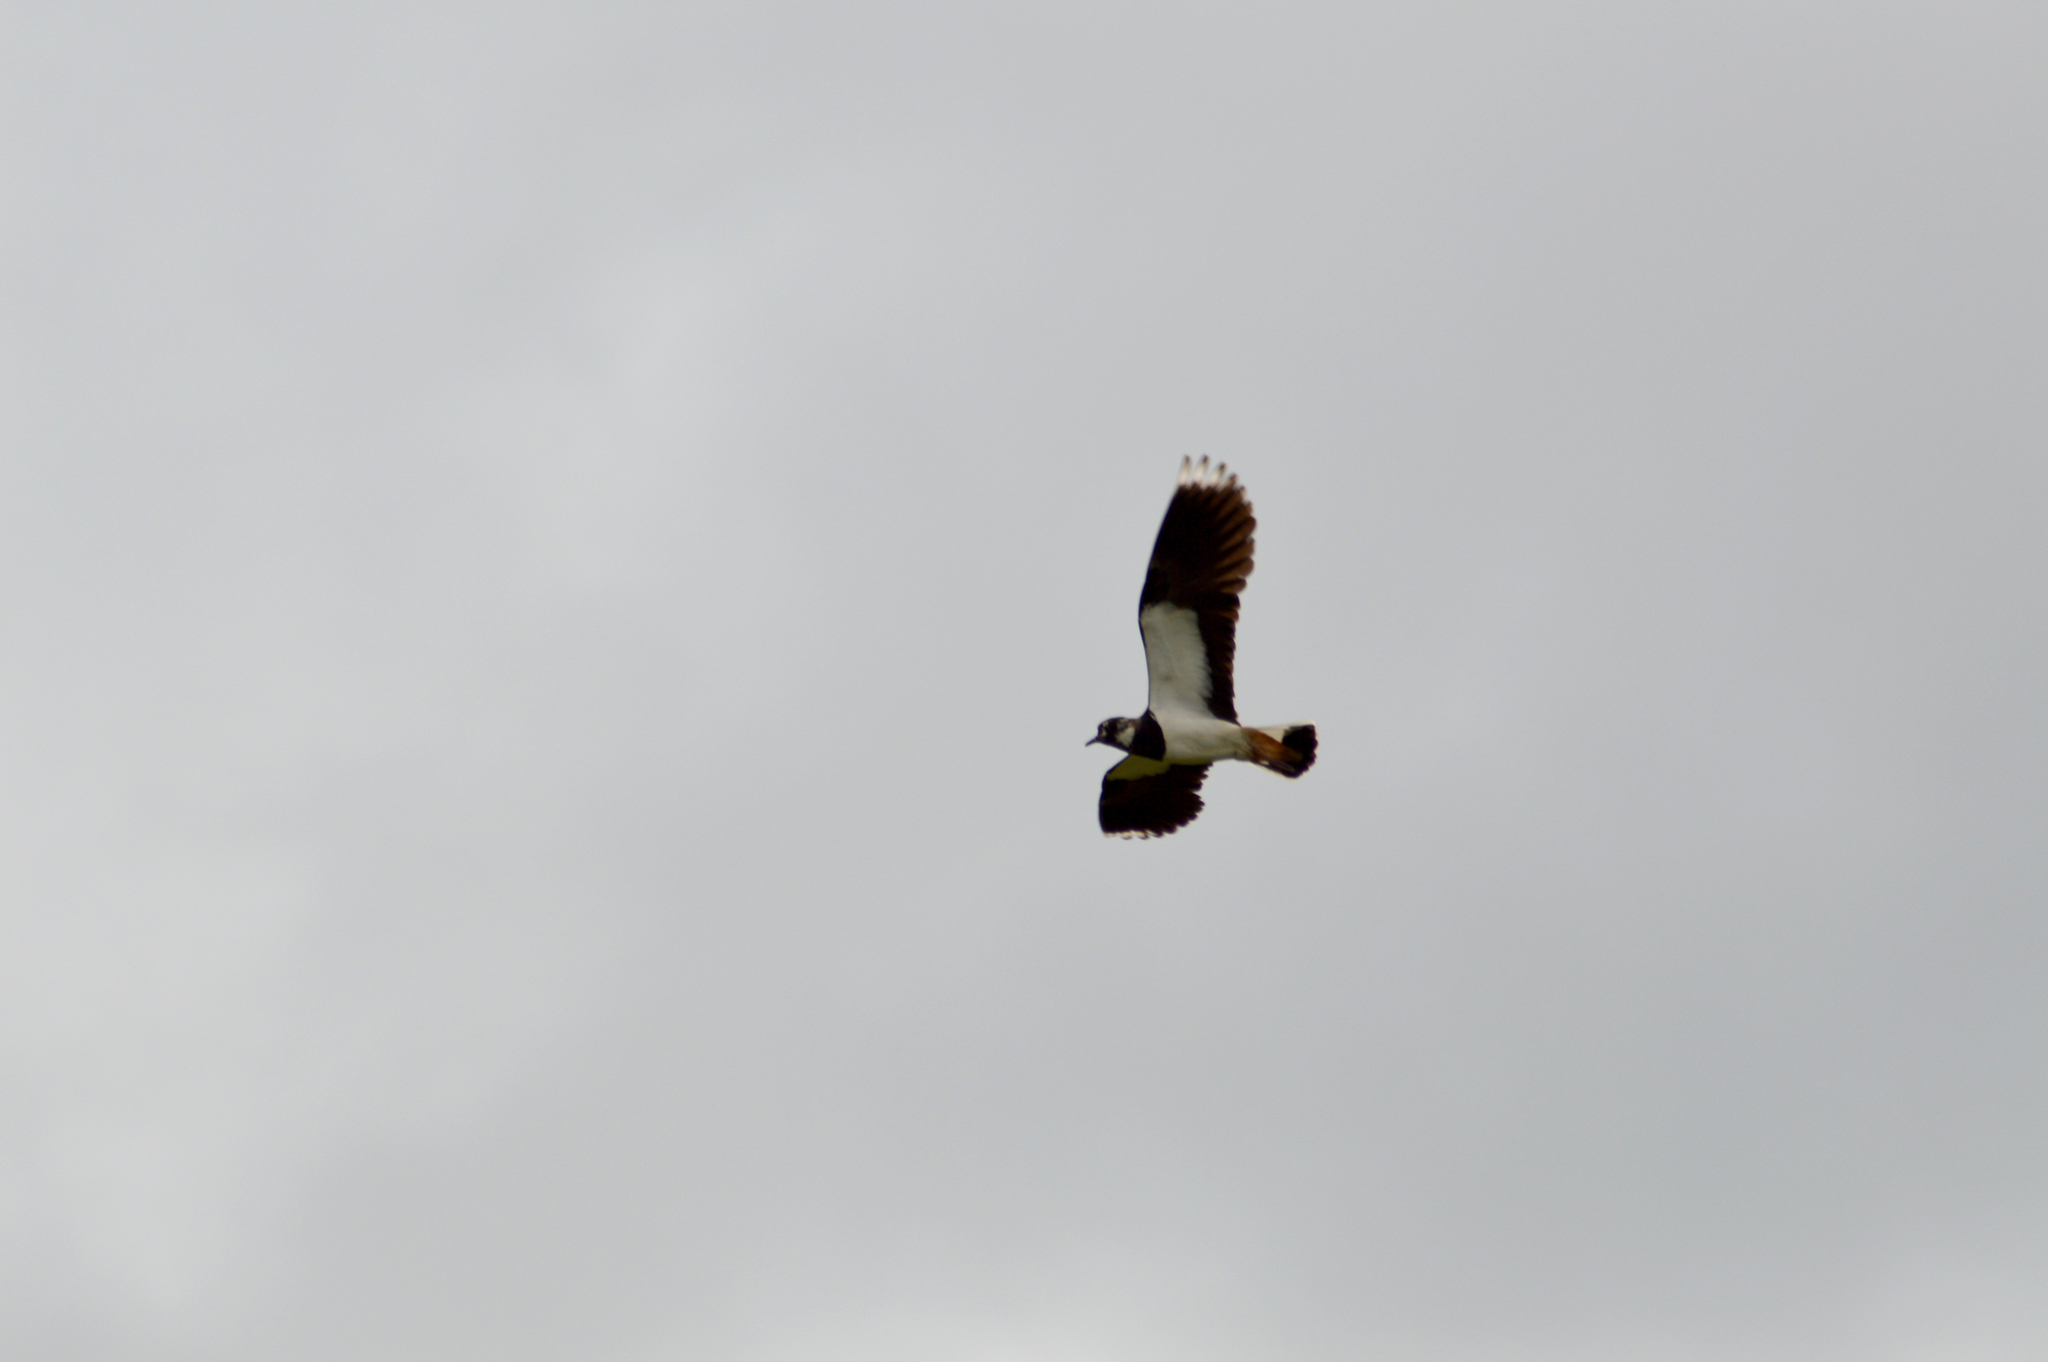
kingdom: Animalia
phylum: Chordata
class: Aves
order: Charadriiformes
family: Charadriidae
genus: Vanellus
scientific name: Vanellus vanellus
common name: Northern lapwing
